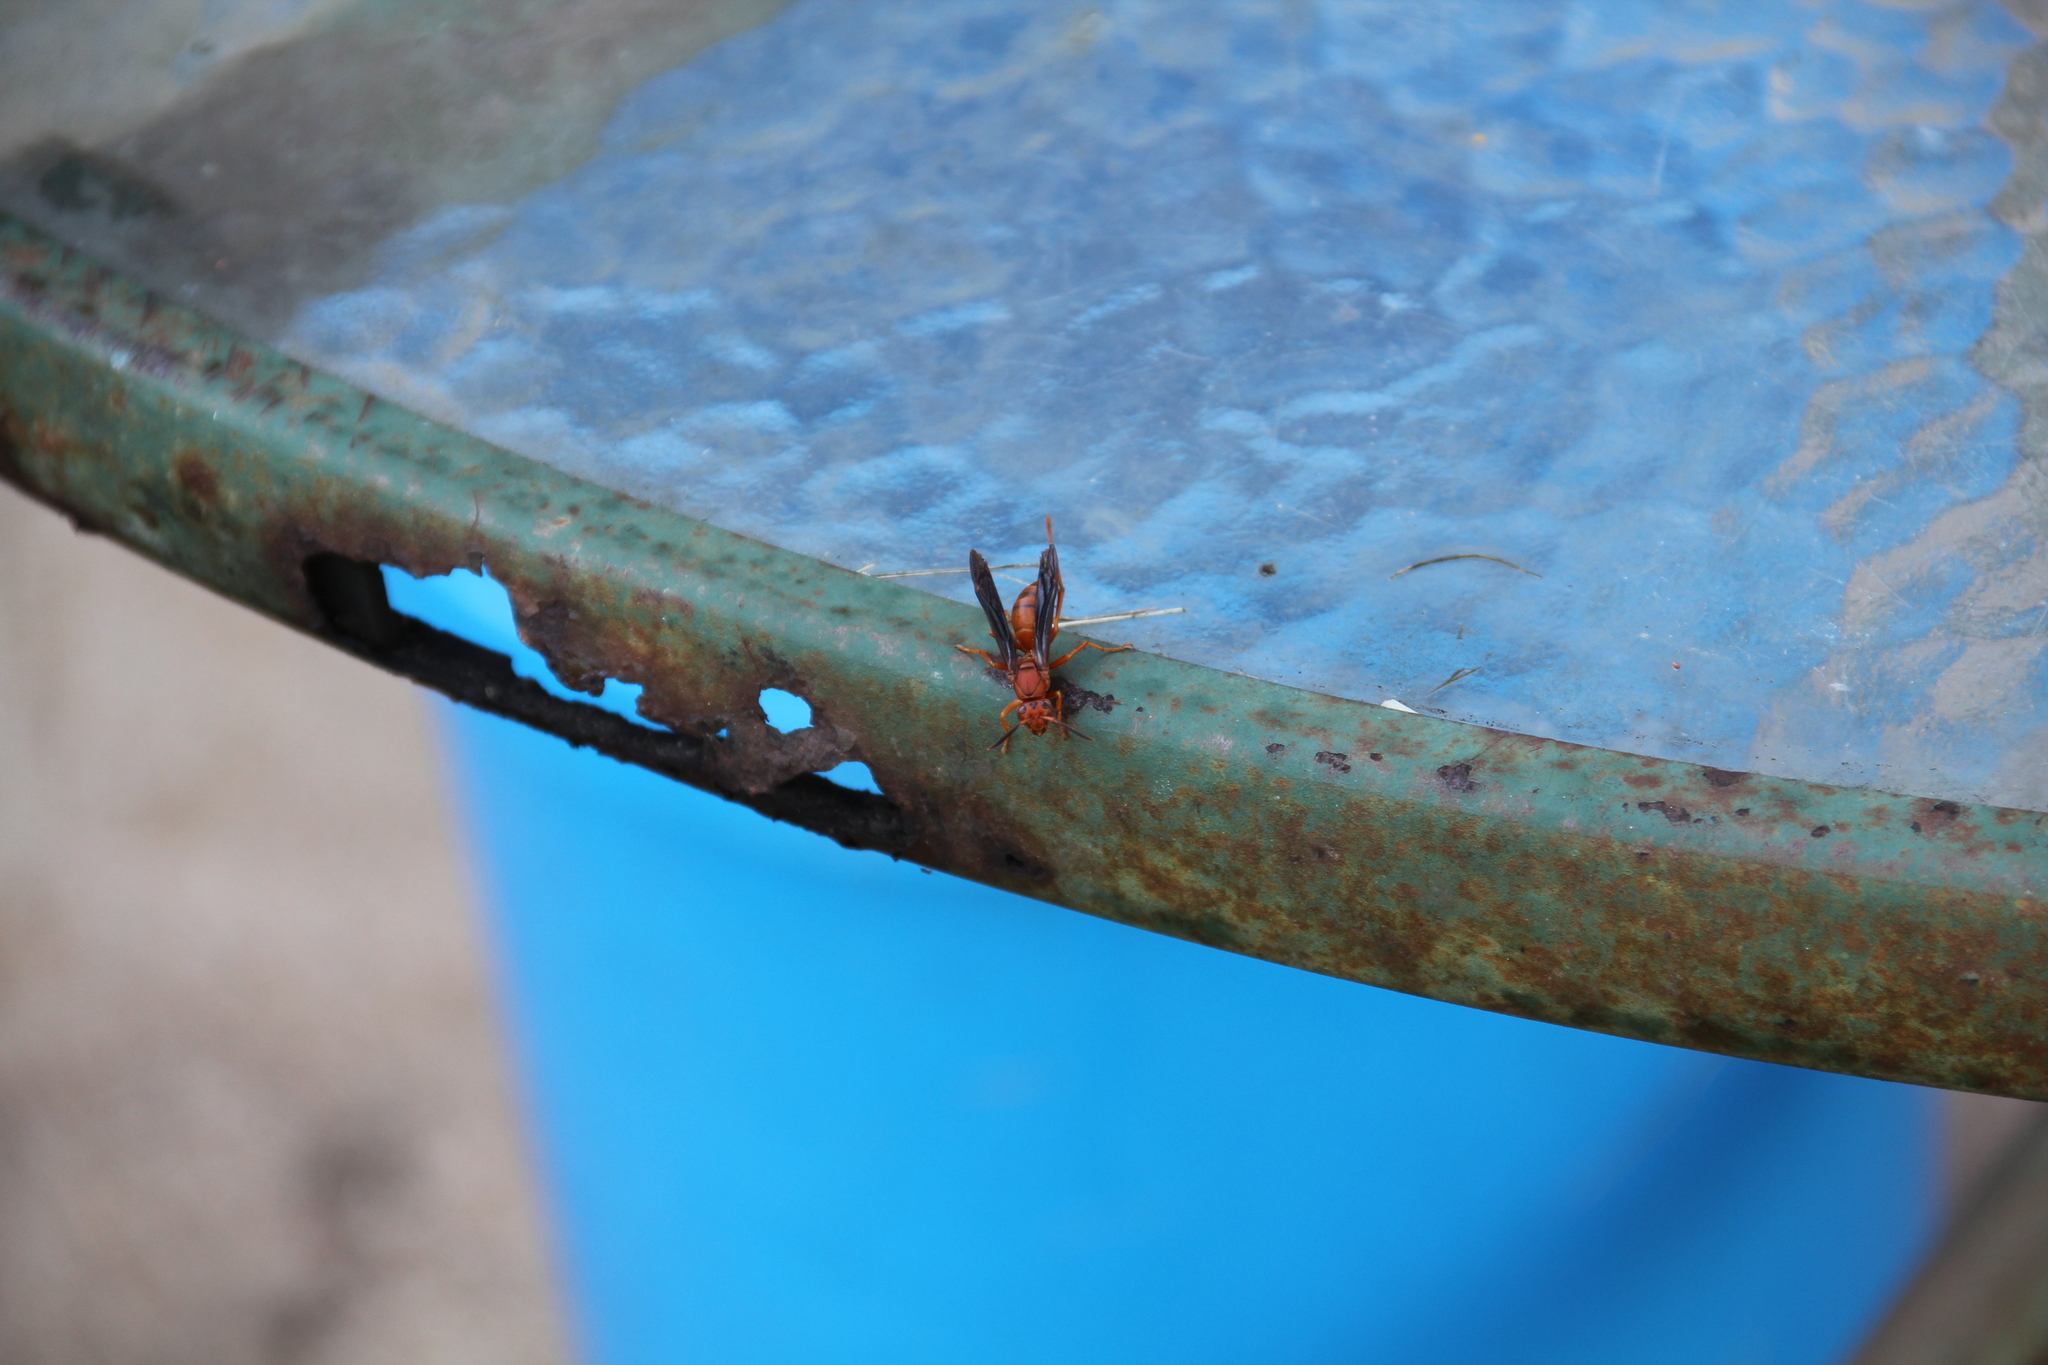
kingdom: Animalia
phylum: Arthropoda
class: Insecta
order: Hymenoptera
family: Vespidae
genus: Fuscopolistes
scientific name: Fuscopolistes
